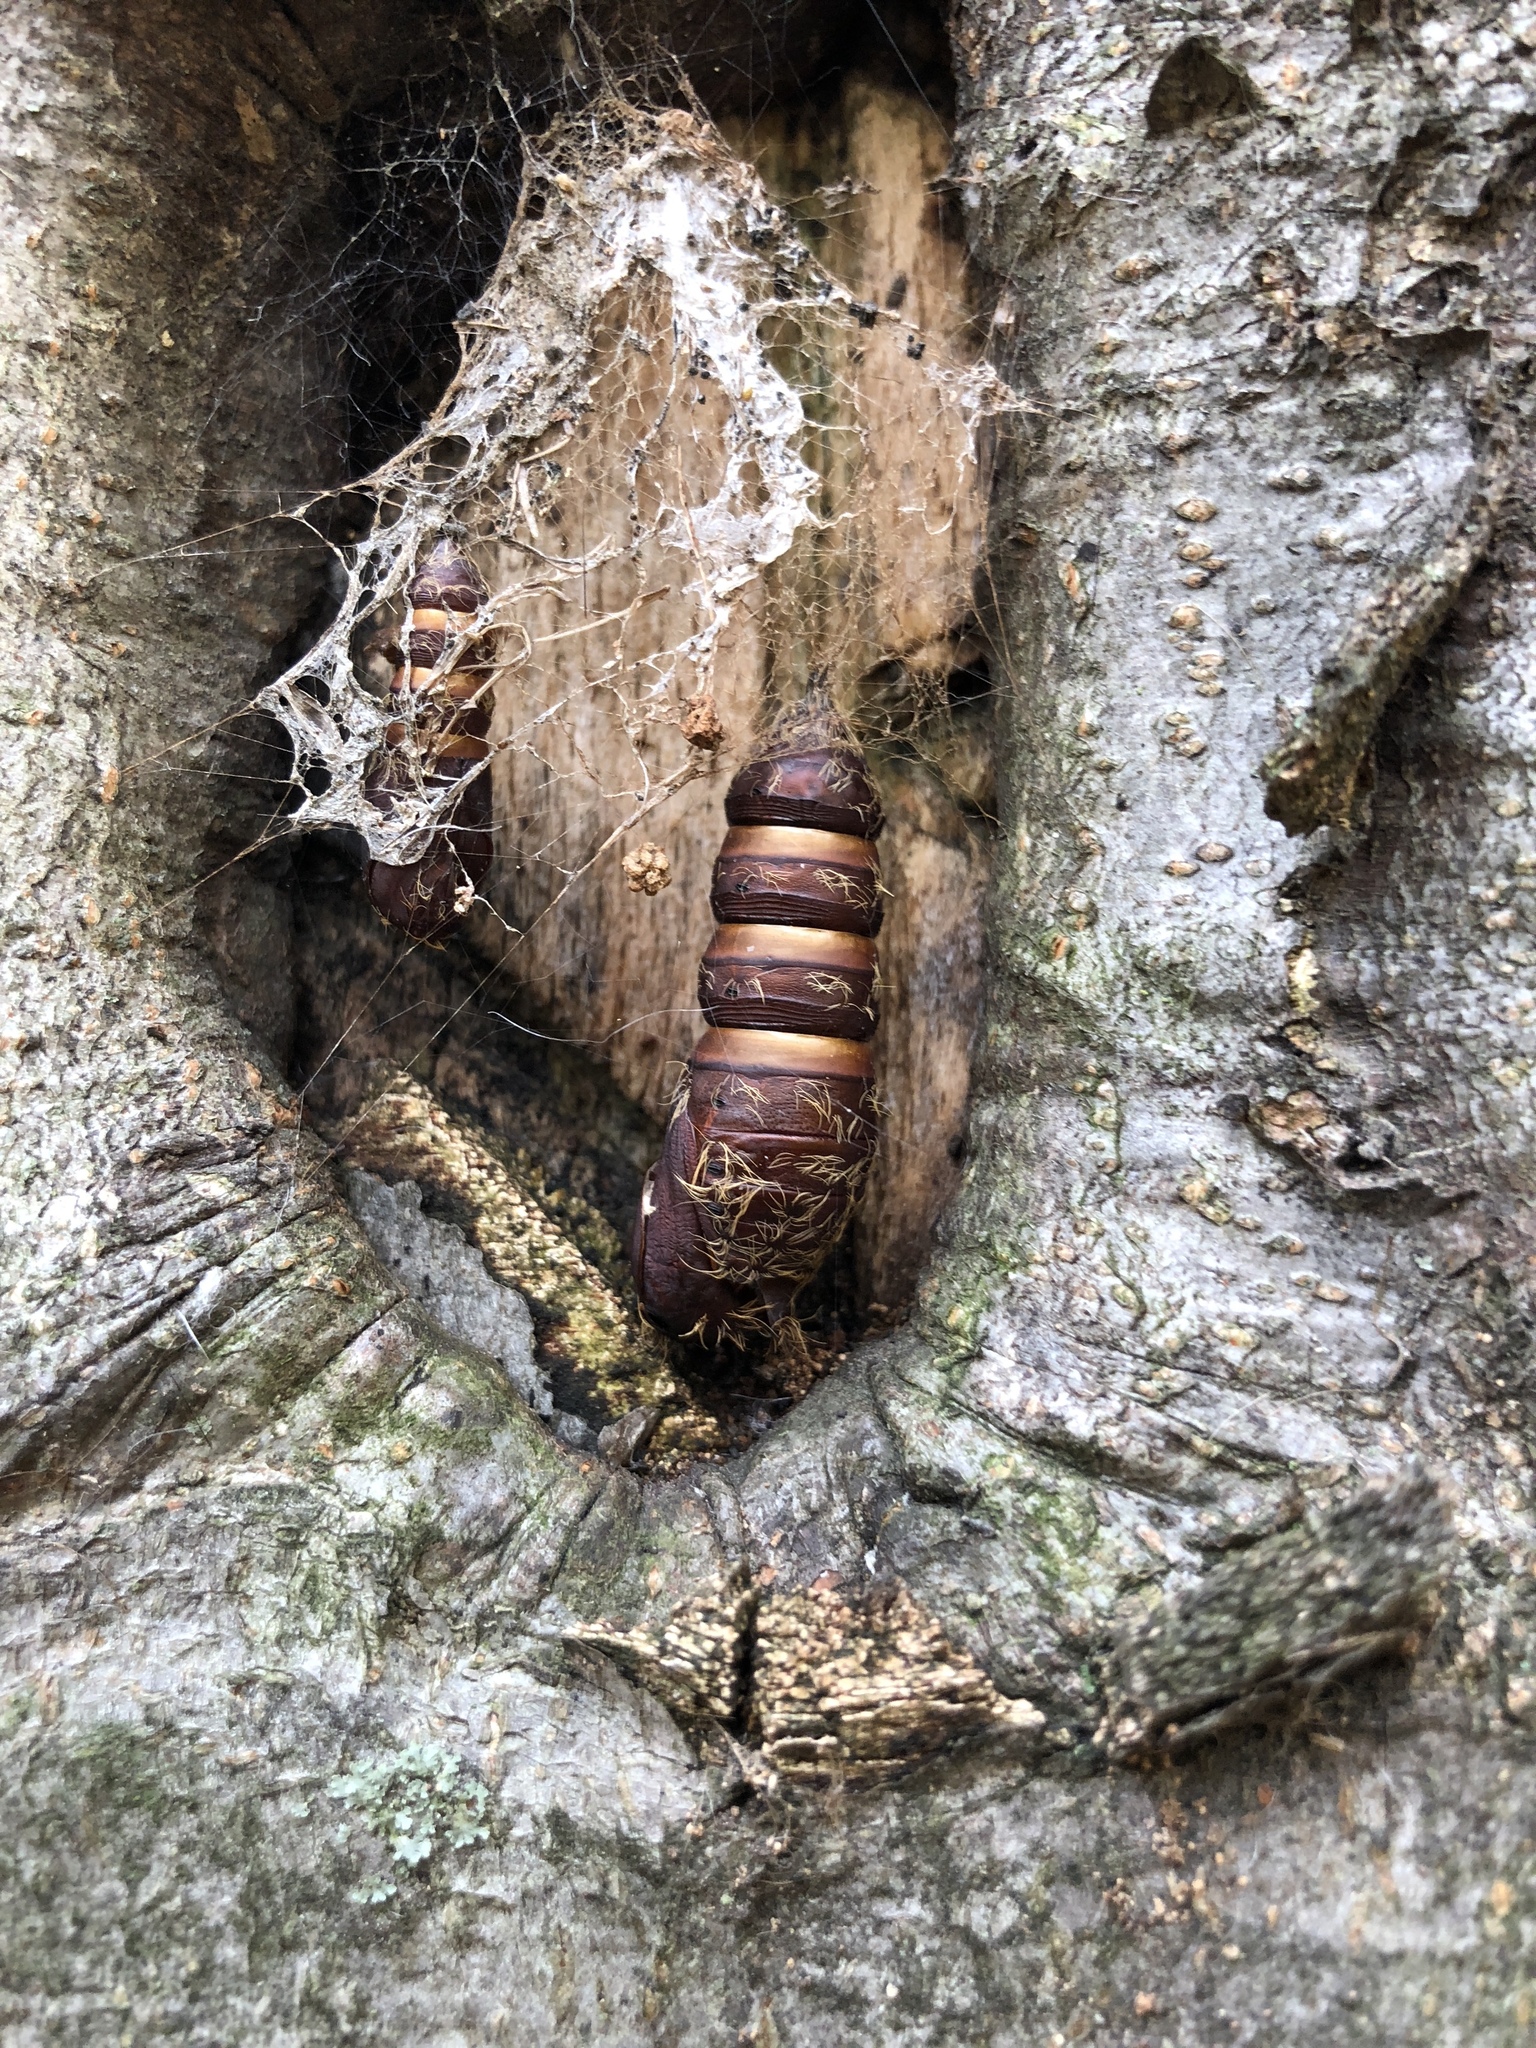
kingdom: Animalia
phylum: Arthropoda
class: Insecta
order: Lepidoptera
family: Erebidae
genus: Lymantria
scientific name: Lymantria dispar
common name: Gypsy moth
